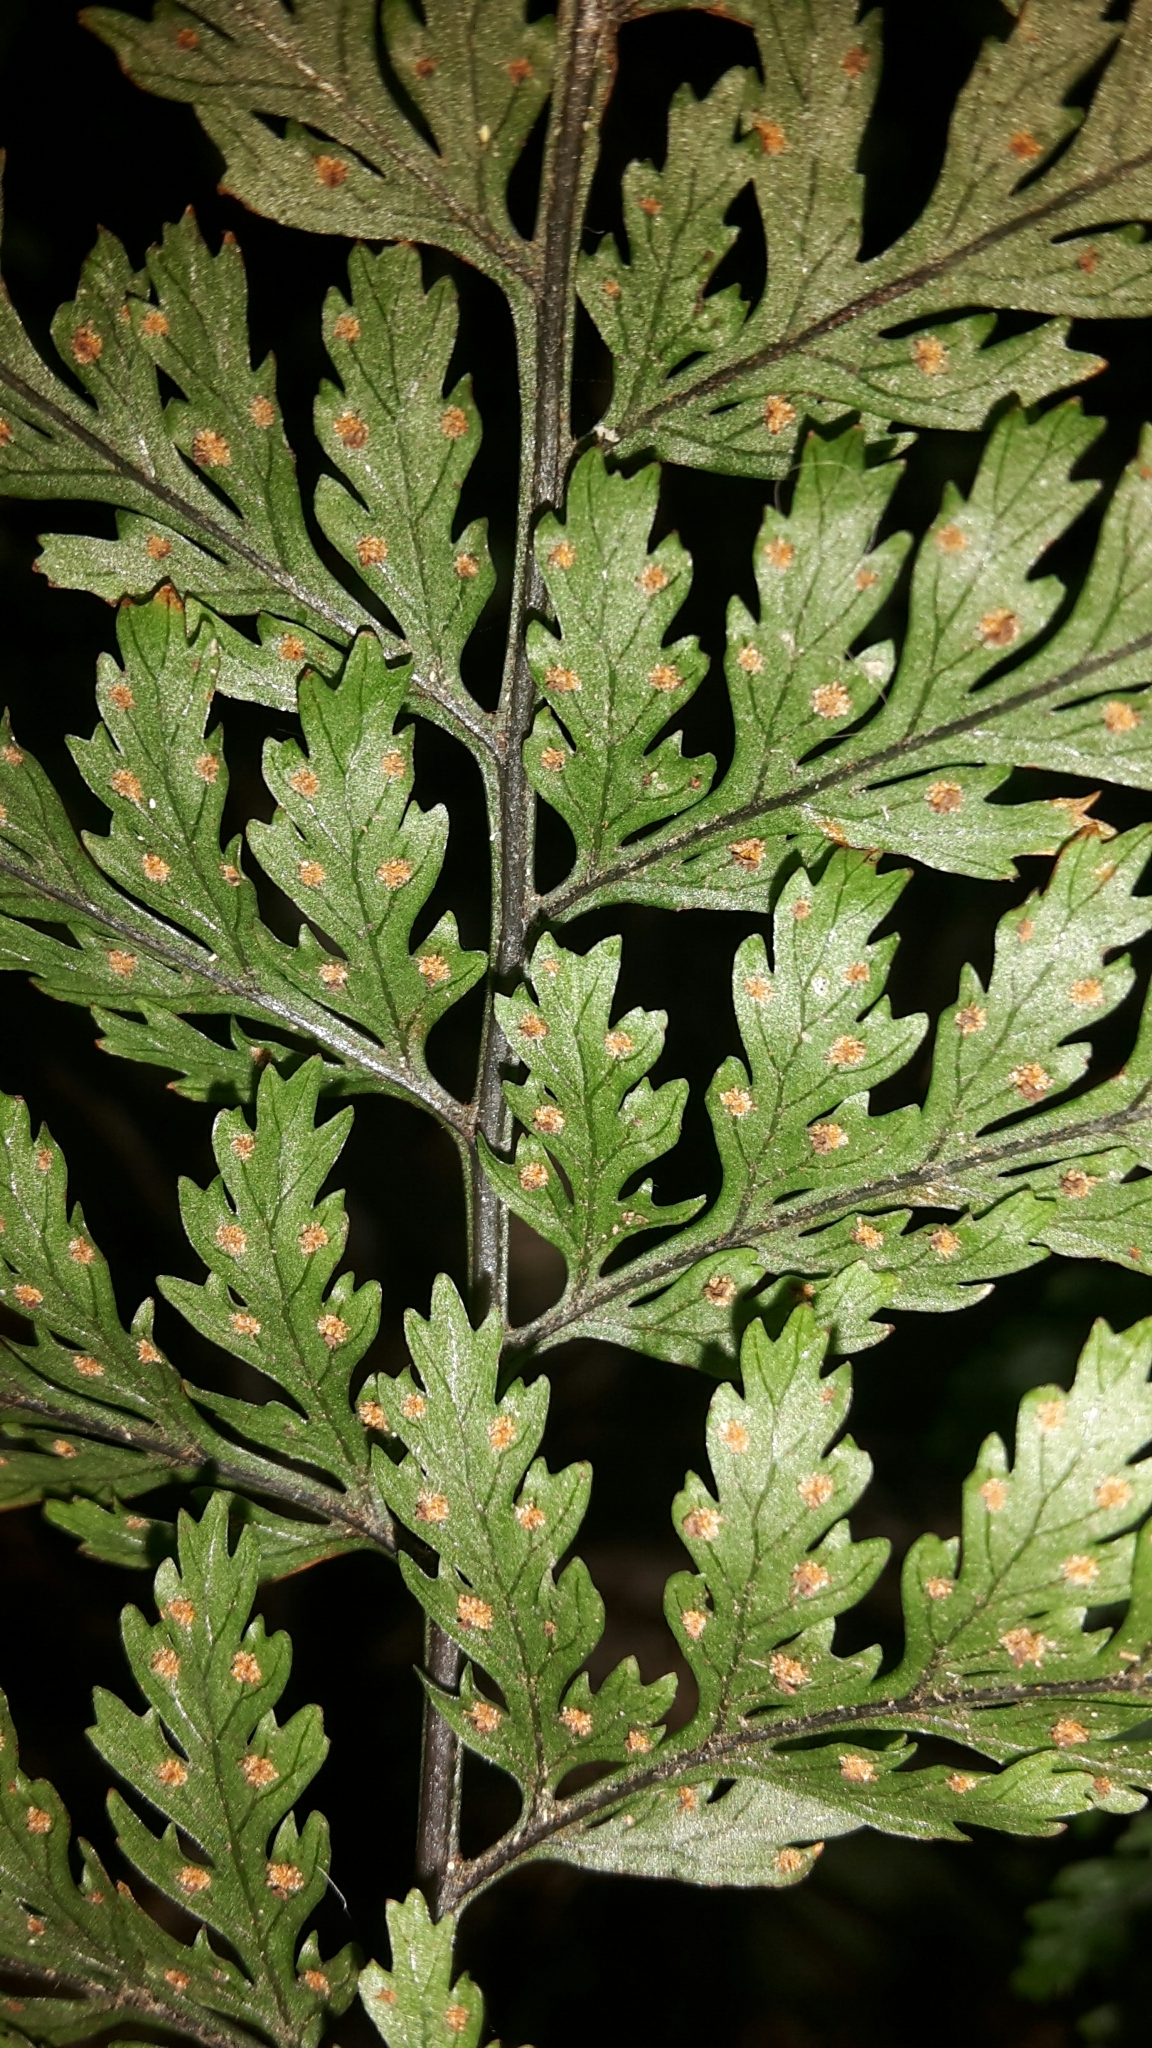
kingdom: Plantae
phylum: Tracheophyta
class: Polypodiopsida
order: Polypodiales
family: Dryopteridaceae
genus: Parapolystichum
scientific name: Parapolystichum glabellum
